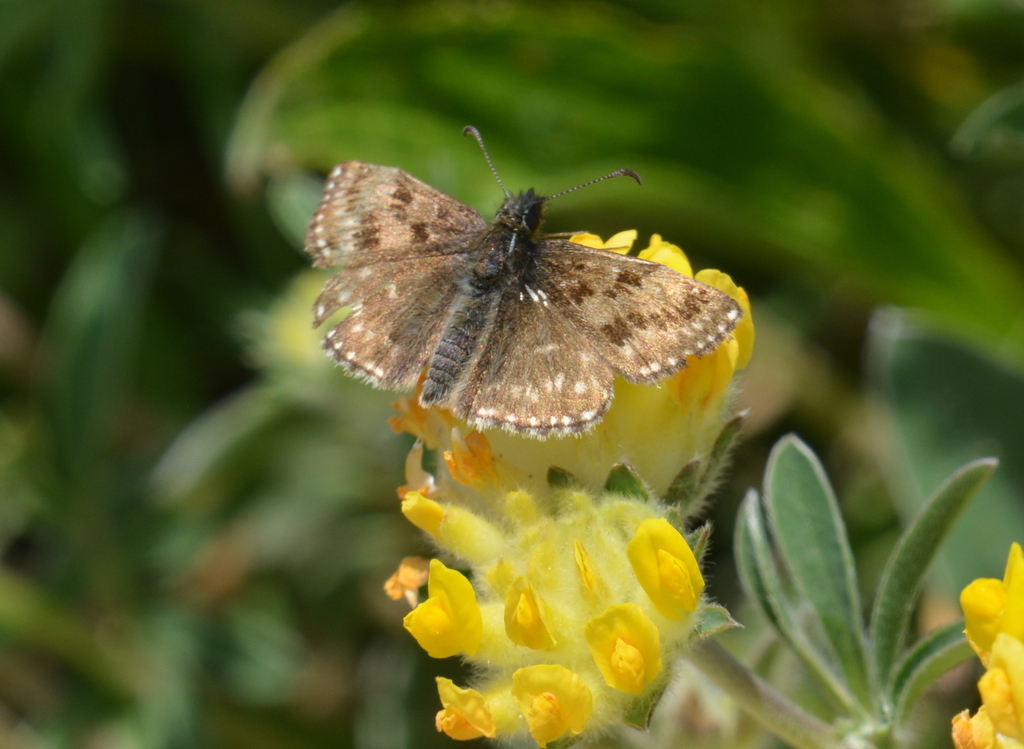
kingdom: Animalia
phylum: Arthropoda
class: Insecta
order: Lepidoptera
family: Hesperiidae
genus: Erynnis
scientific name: Erynnis tages
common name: Dingy skipper
